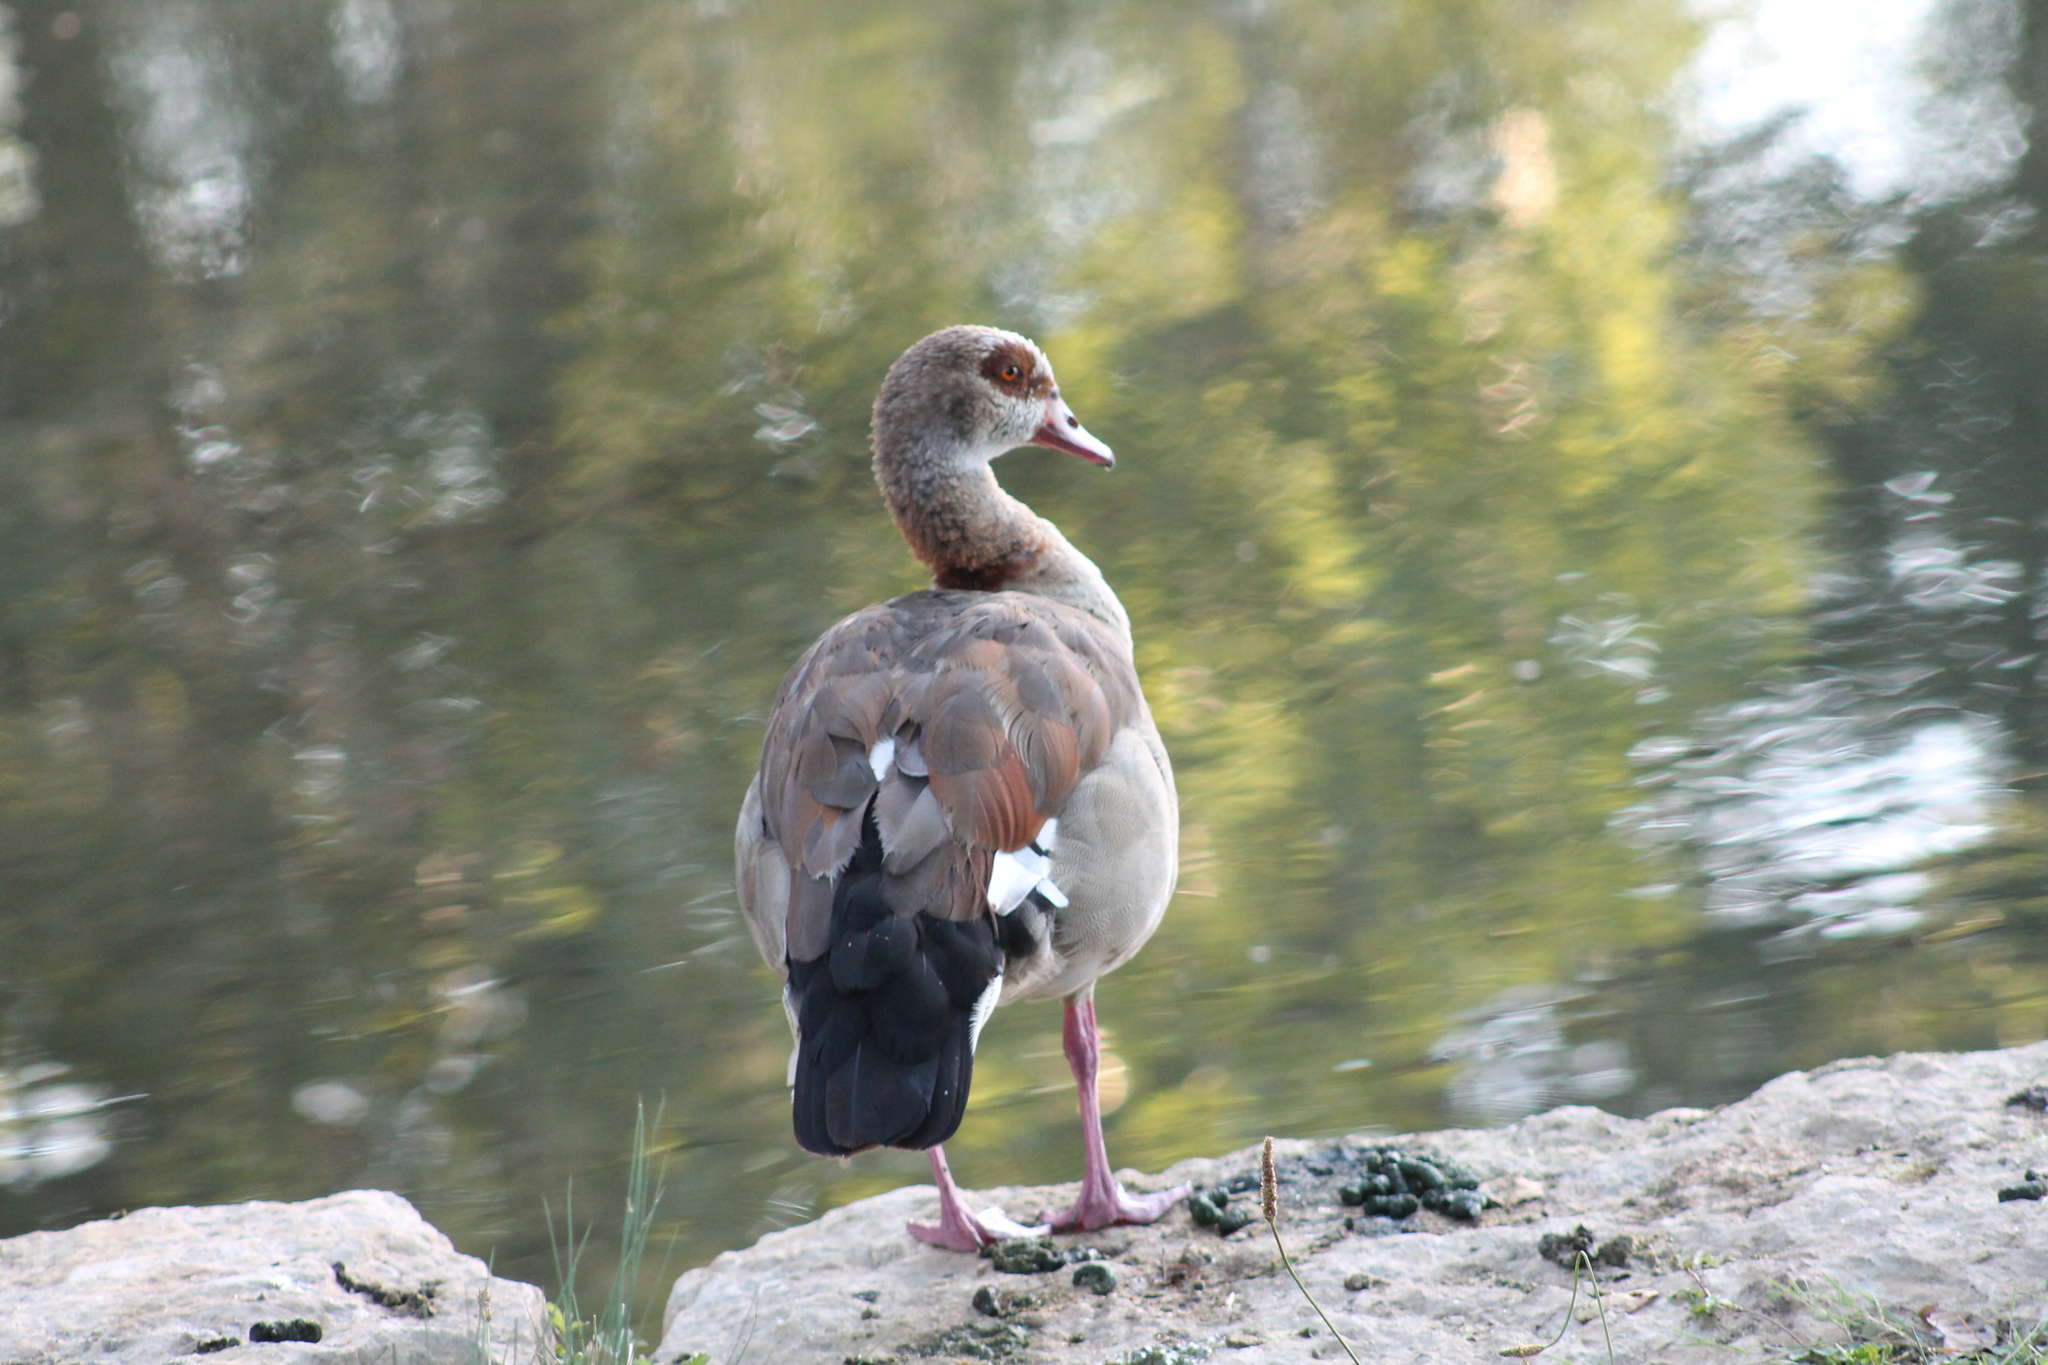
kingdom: Animalia
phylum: Chordata
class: Aves
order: Anseriformes
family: Anatidae
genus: Alopochen
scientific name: Alopochen aegyptiaca
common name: Egyptian goose
